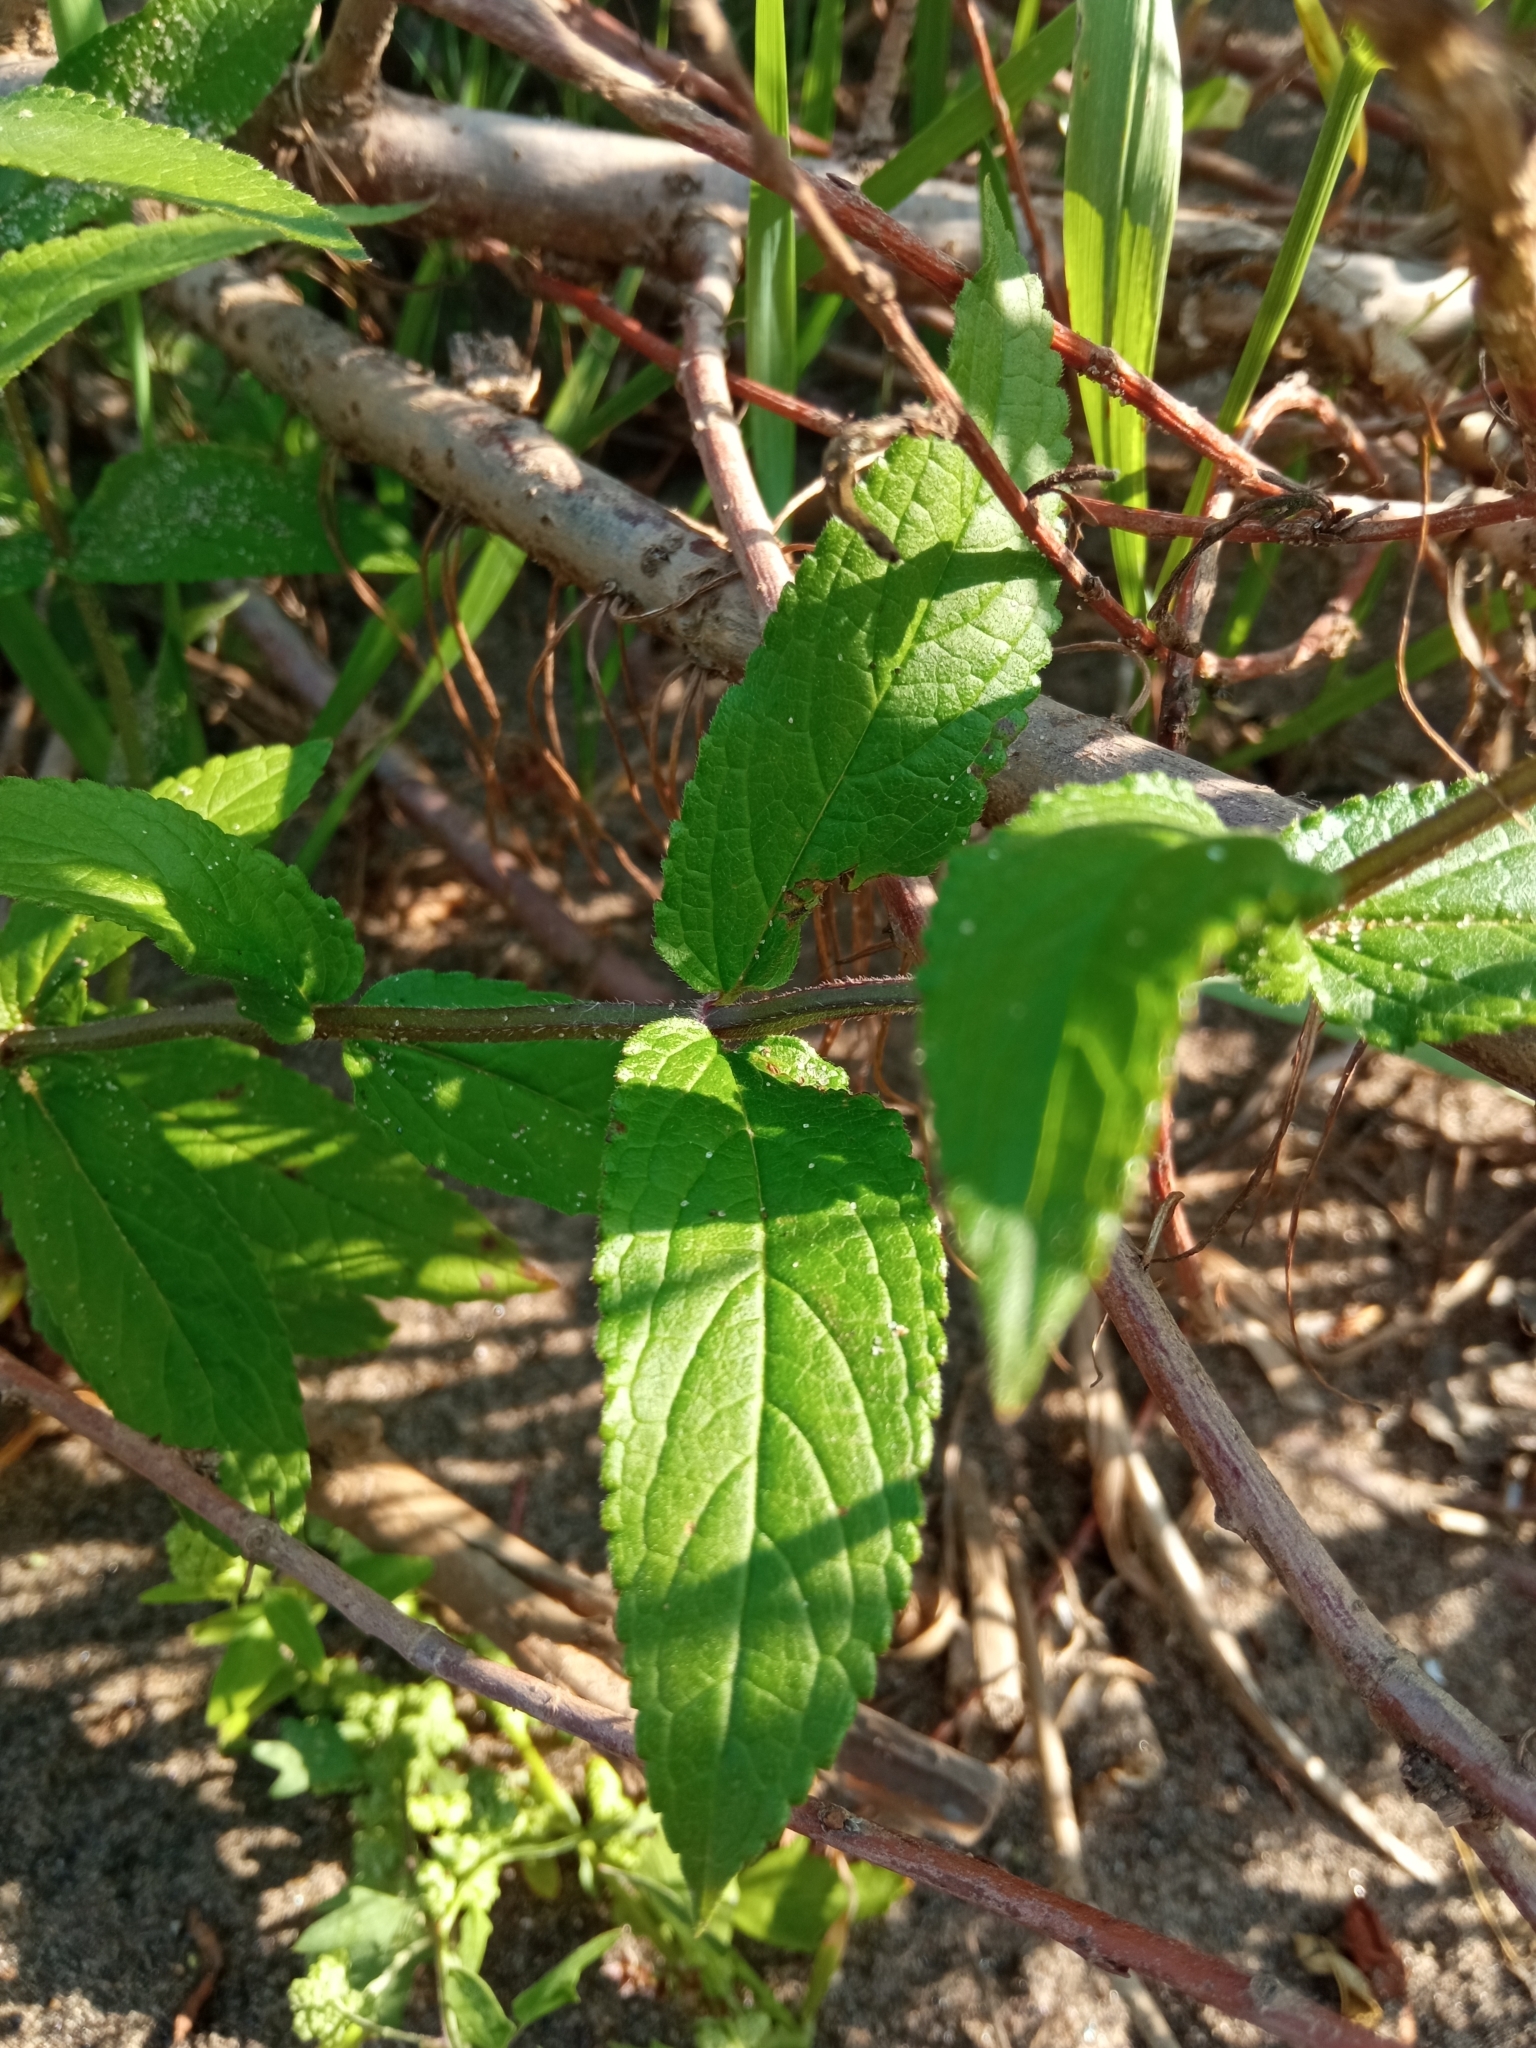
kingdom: Plantae
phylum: Tracheophyta
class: Magnoliopsida
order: Lamiales
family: Lamiaceae
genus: Stachys
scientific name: Stachys palustris
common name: Marsh woundwort
